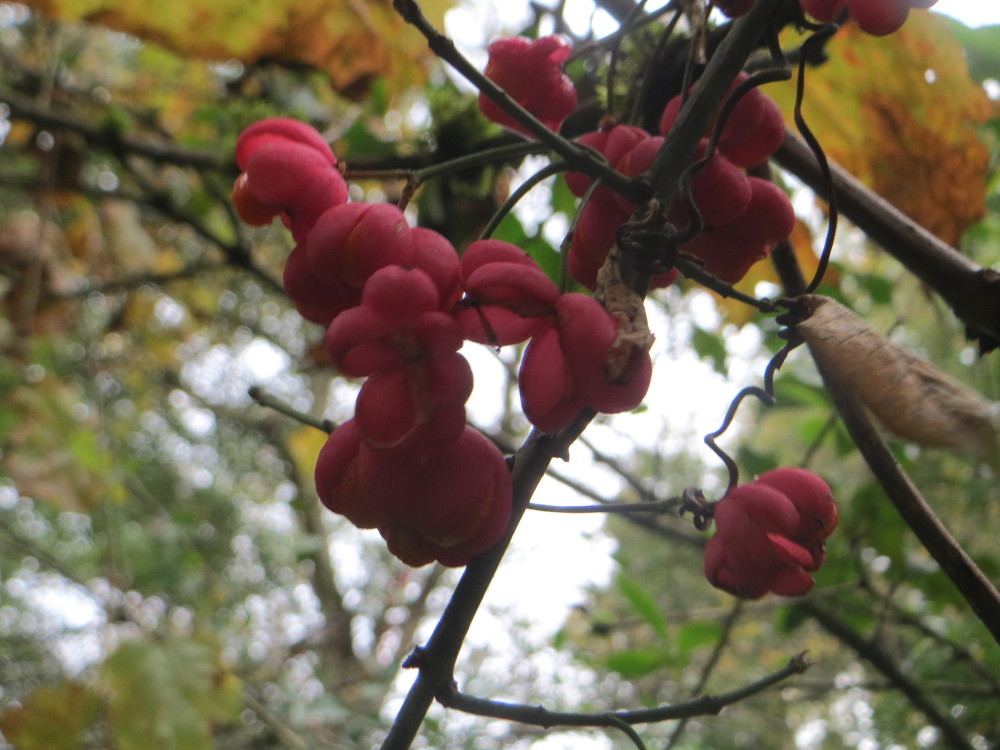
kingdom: Plantae
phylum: Tracheophyta
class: Magnoliopsida
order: Celastrales
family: Celastraceae
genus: Euonymus
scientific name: Euonymus europaeus
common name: Spindle
